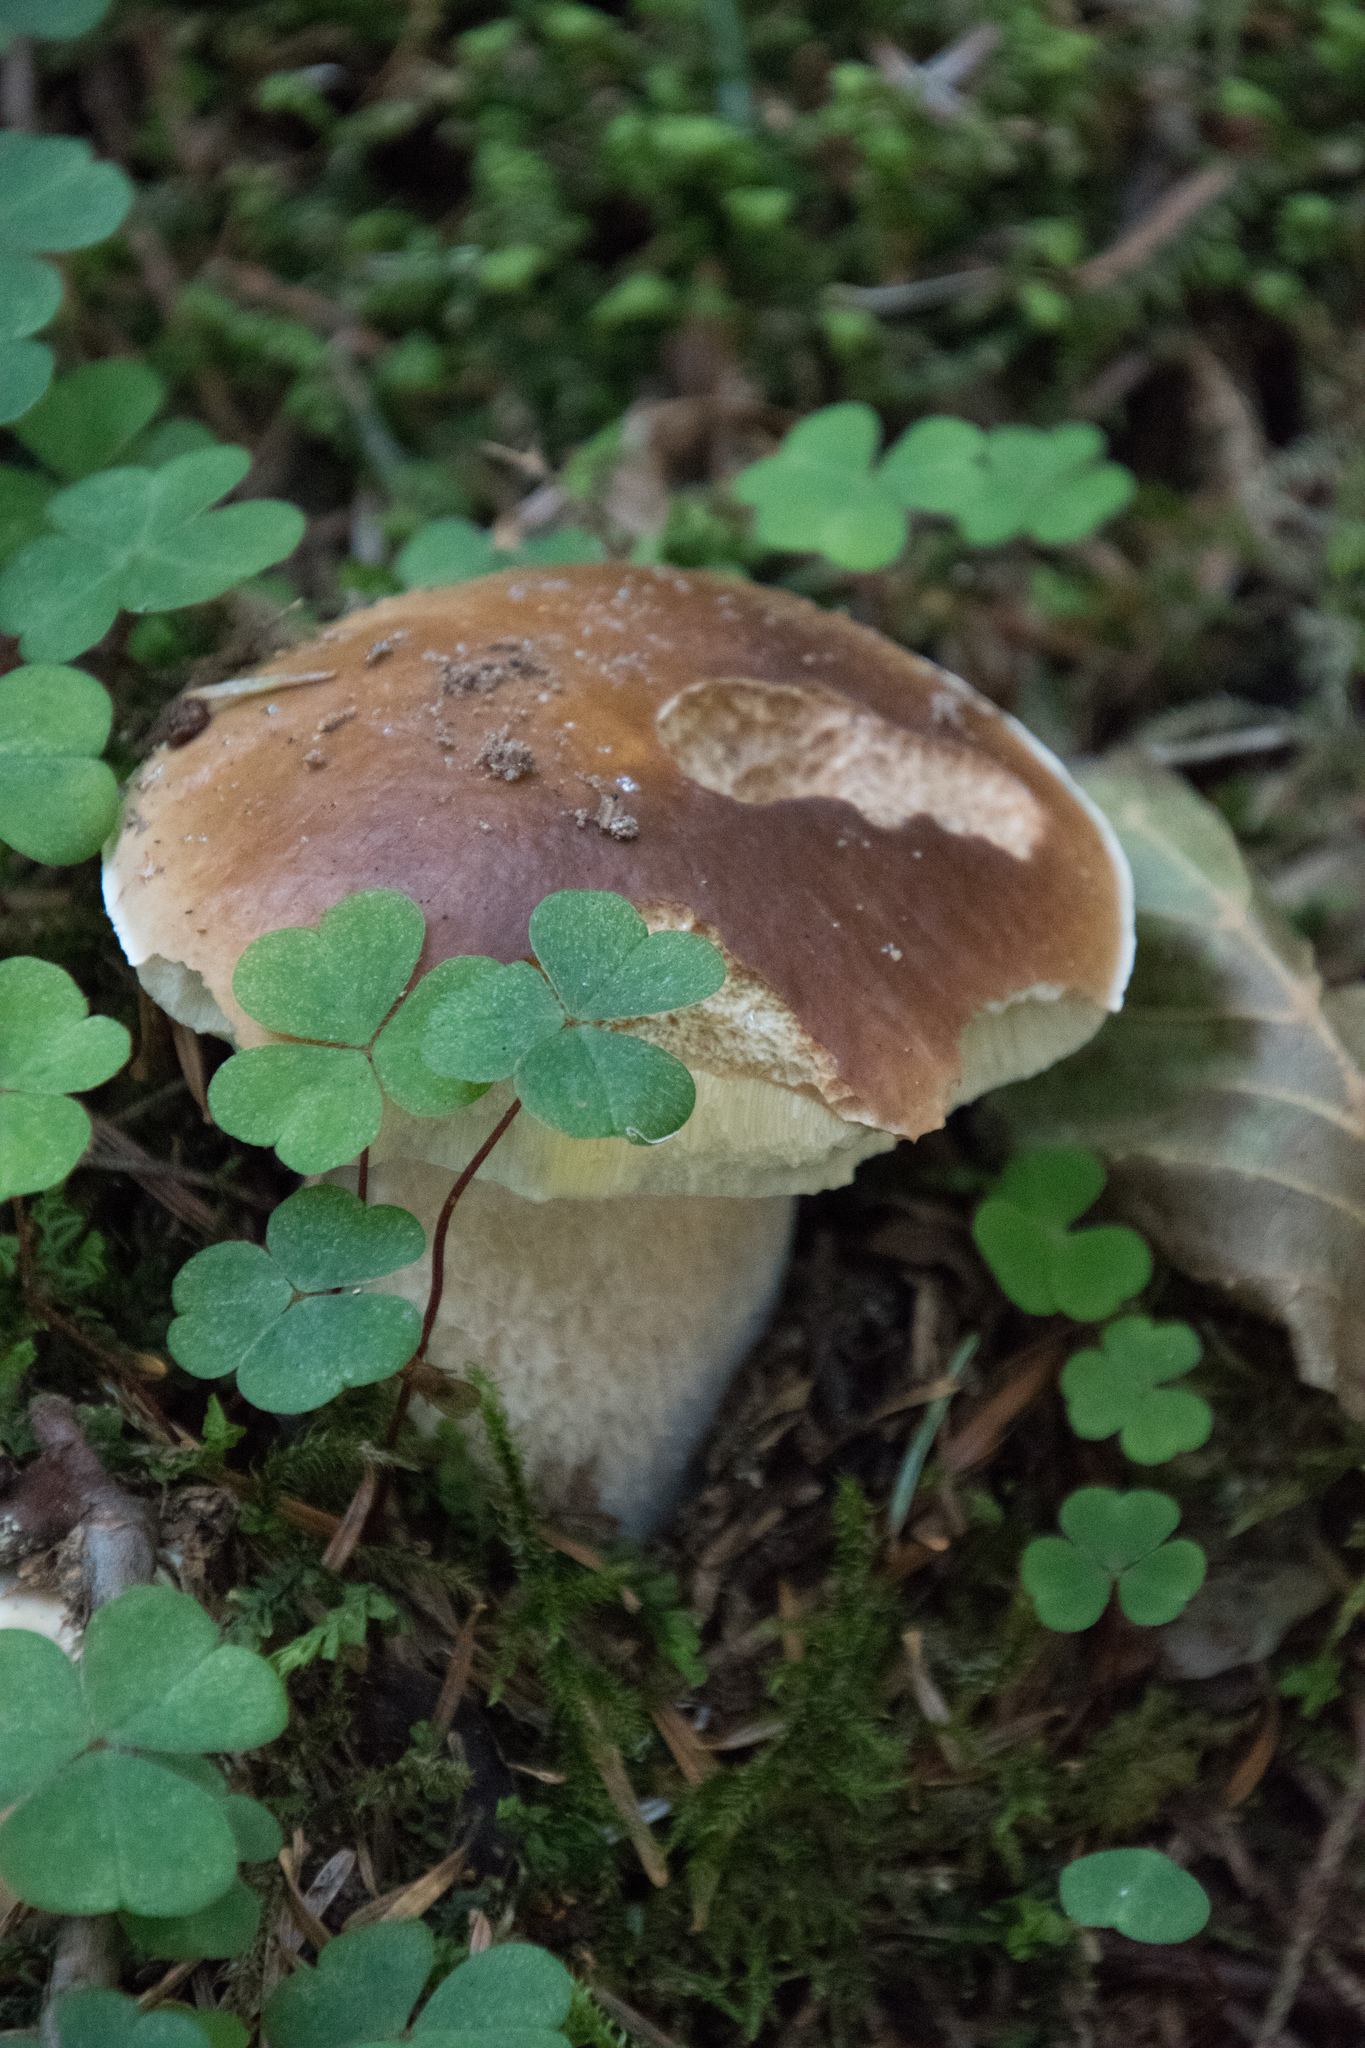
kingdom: Fungi
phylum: Basidiomycota
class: Agaricomycetes
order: Boletales
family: Boletaceae
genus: Boletus
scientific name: Boletus edulis
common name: Cep
